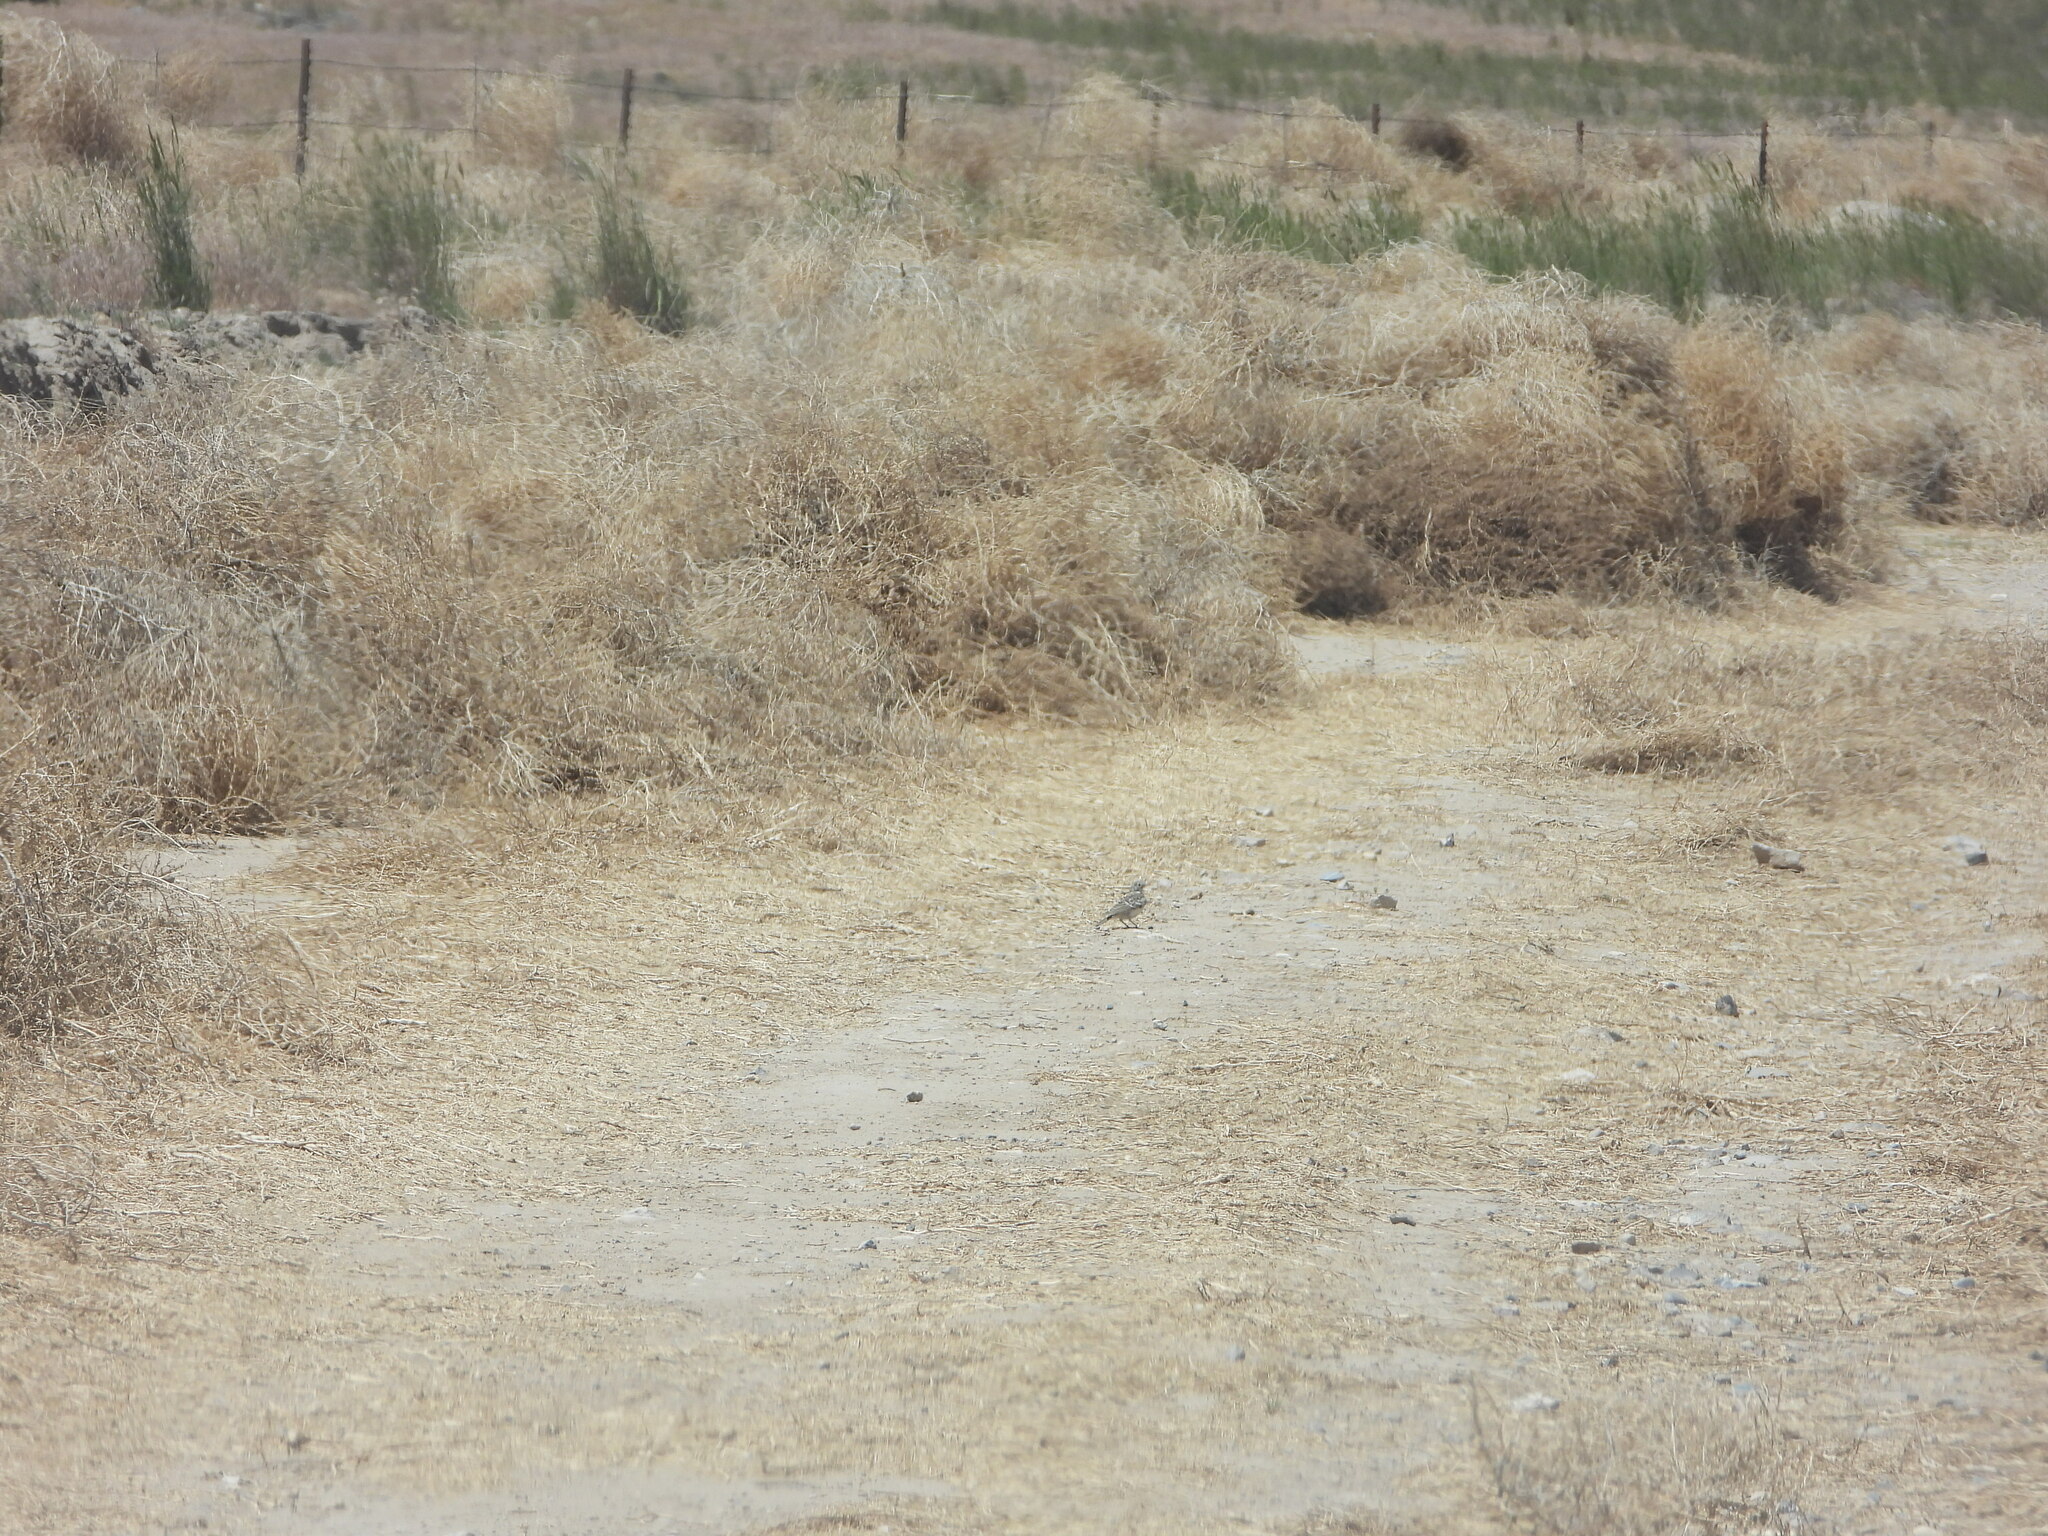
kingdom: Animalia
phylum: Chordata
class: Aves
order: Passeriformes
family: Alaudidae
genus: Eremophila
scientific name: Eremophila alpestris
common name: Horned lark
